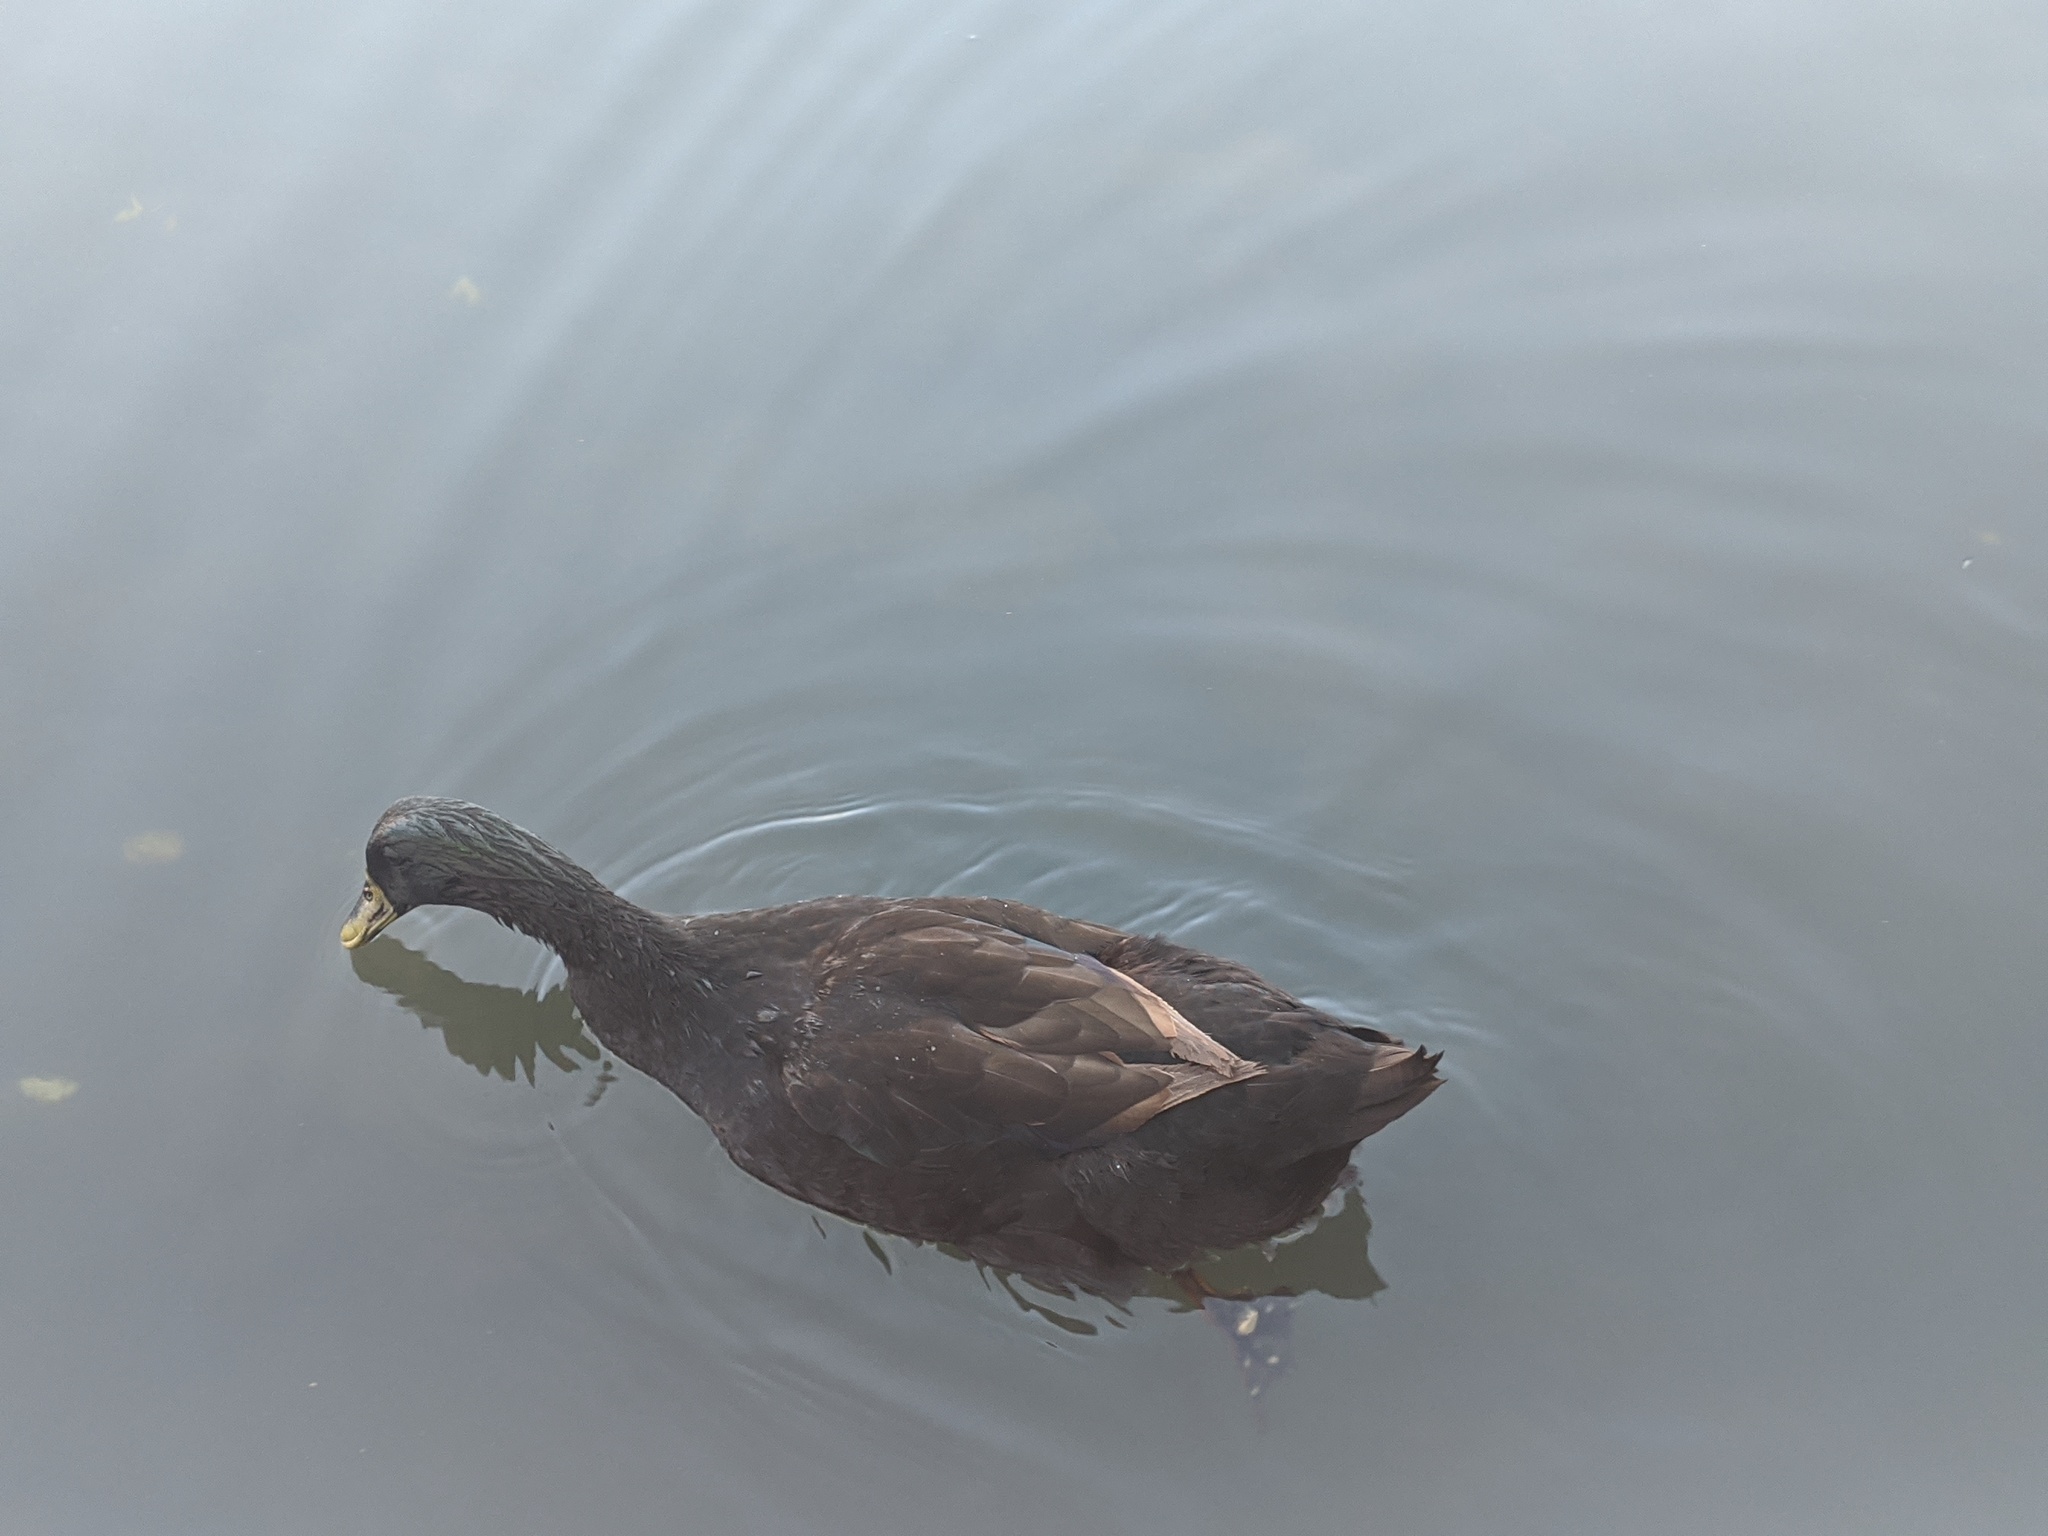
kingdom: Animalia
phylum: Chordata
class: Aves
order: Anseriformes
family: Anatidae
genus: Anas
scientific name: Anas platyrhynchos
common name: Mallard
